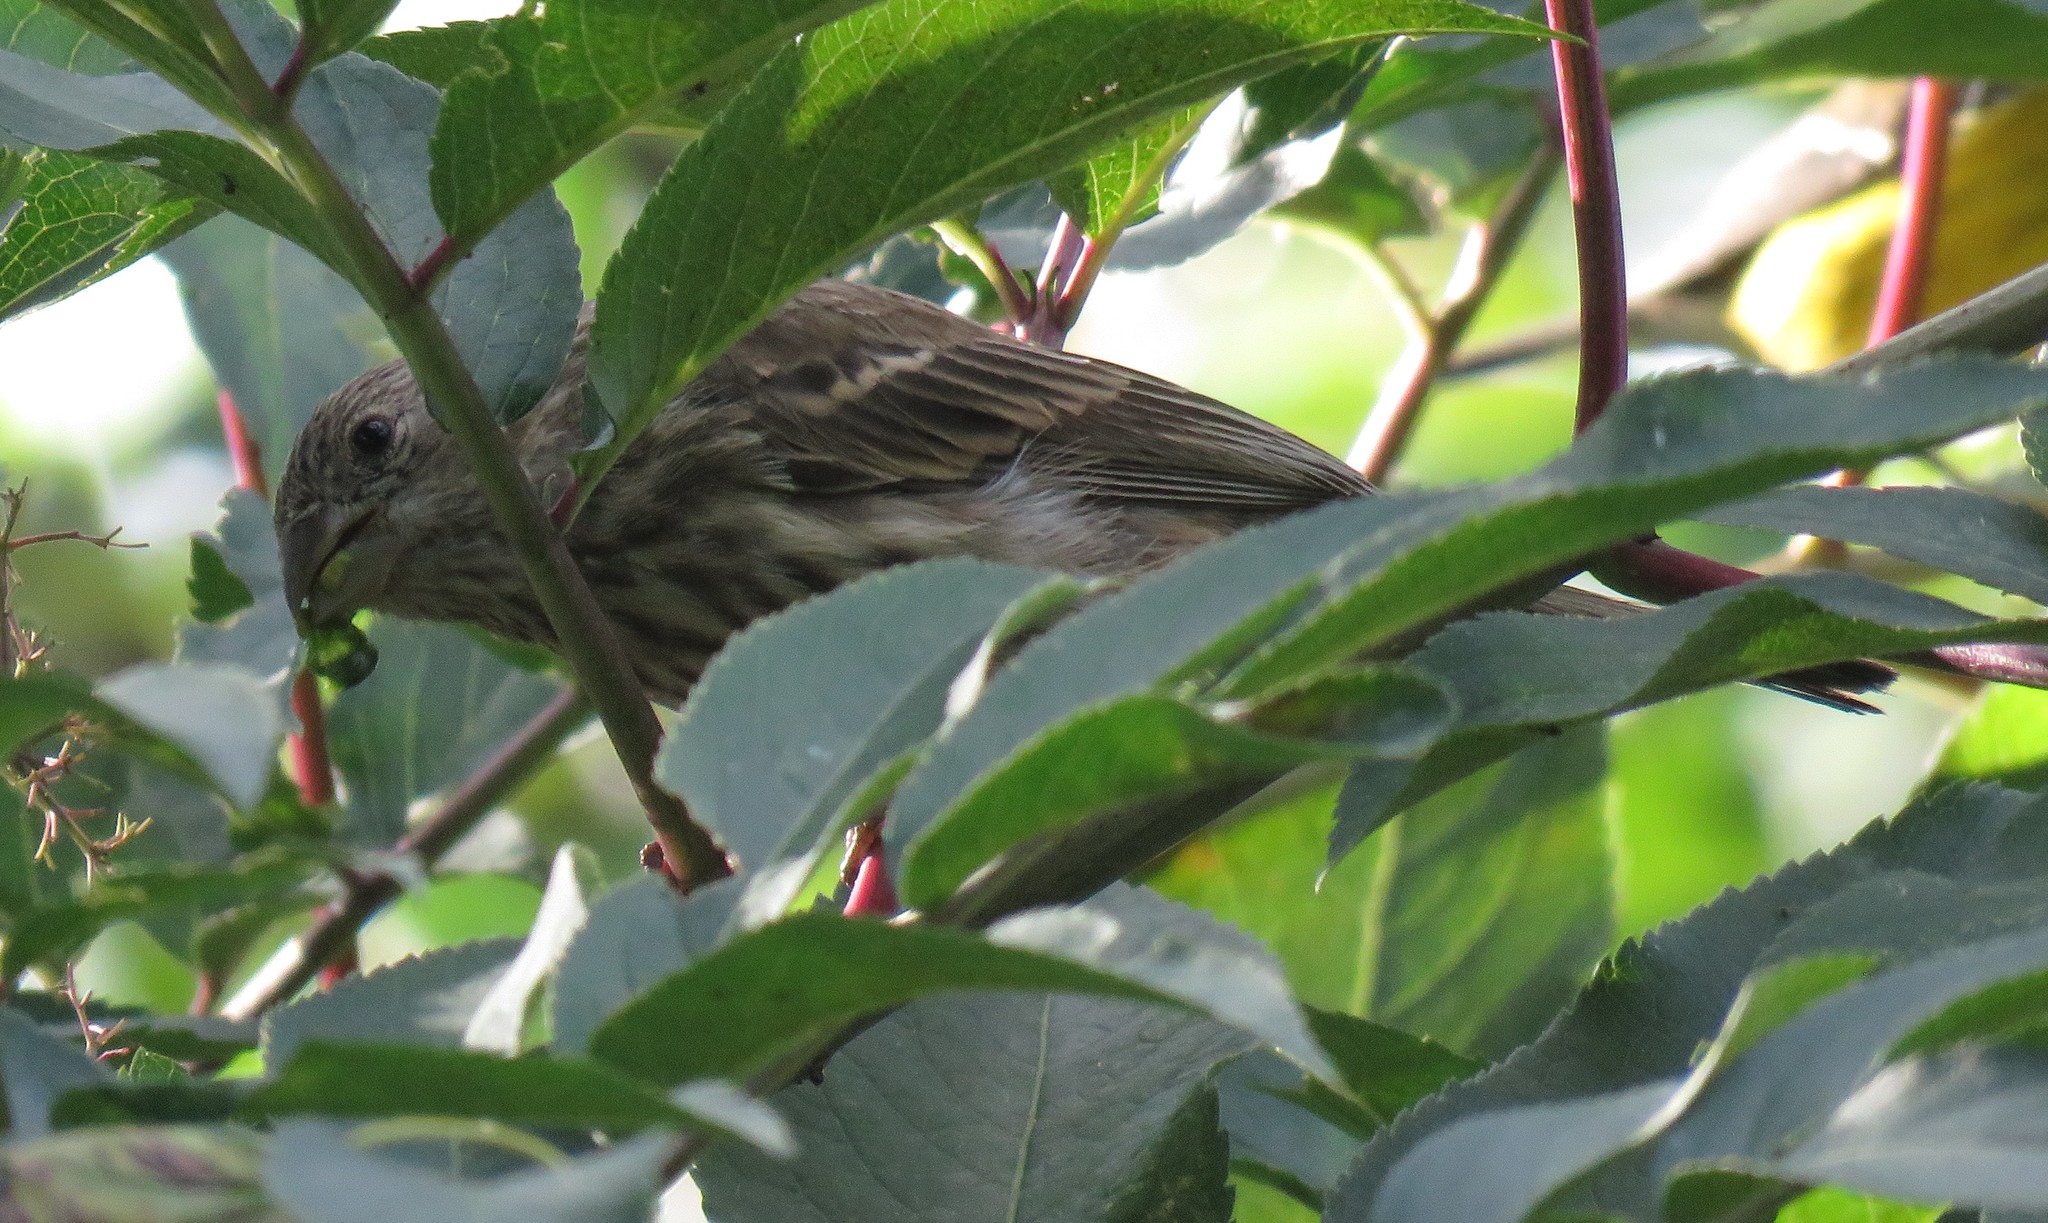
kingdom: Animalia
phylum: Chordata
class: Aves
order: Passeriformes
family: Fringillidae
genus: Haemorhous
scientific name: Haemorhous mexicanus
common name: House finch
